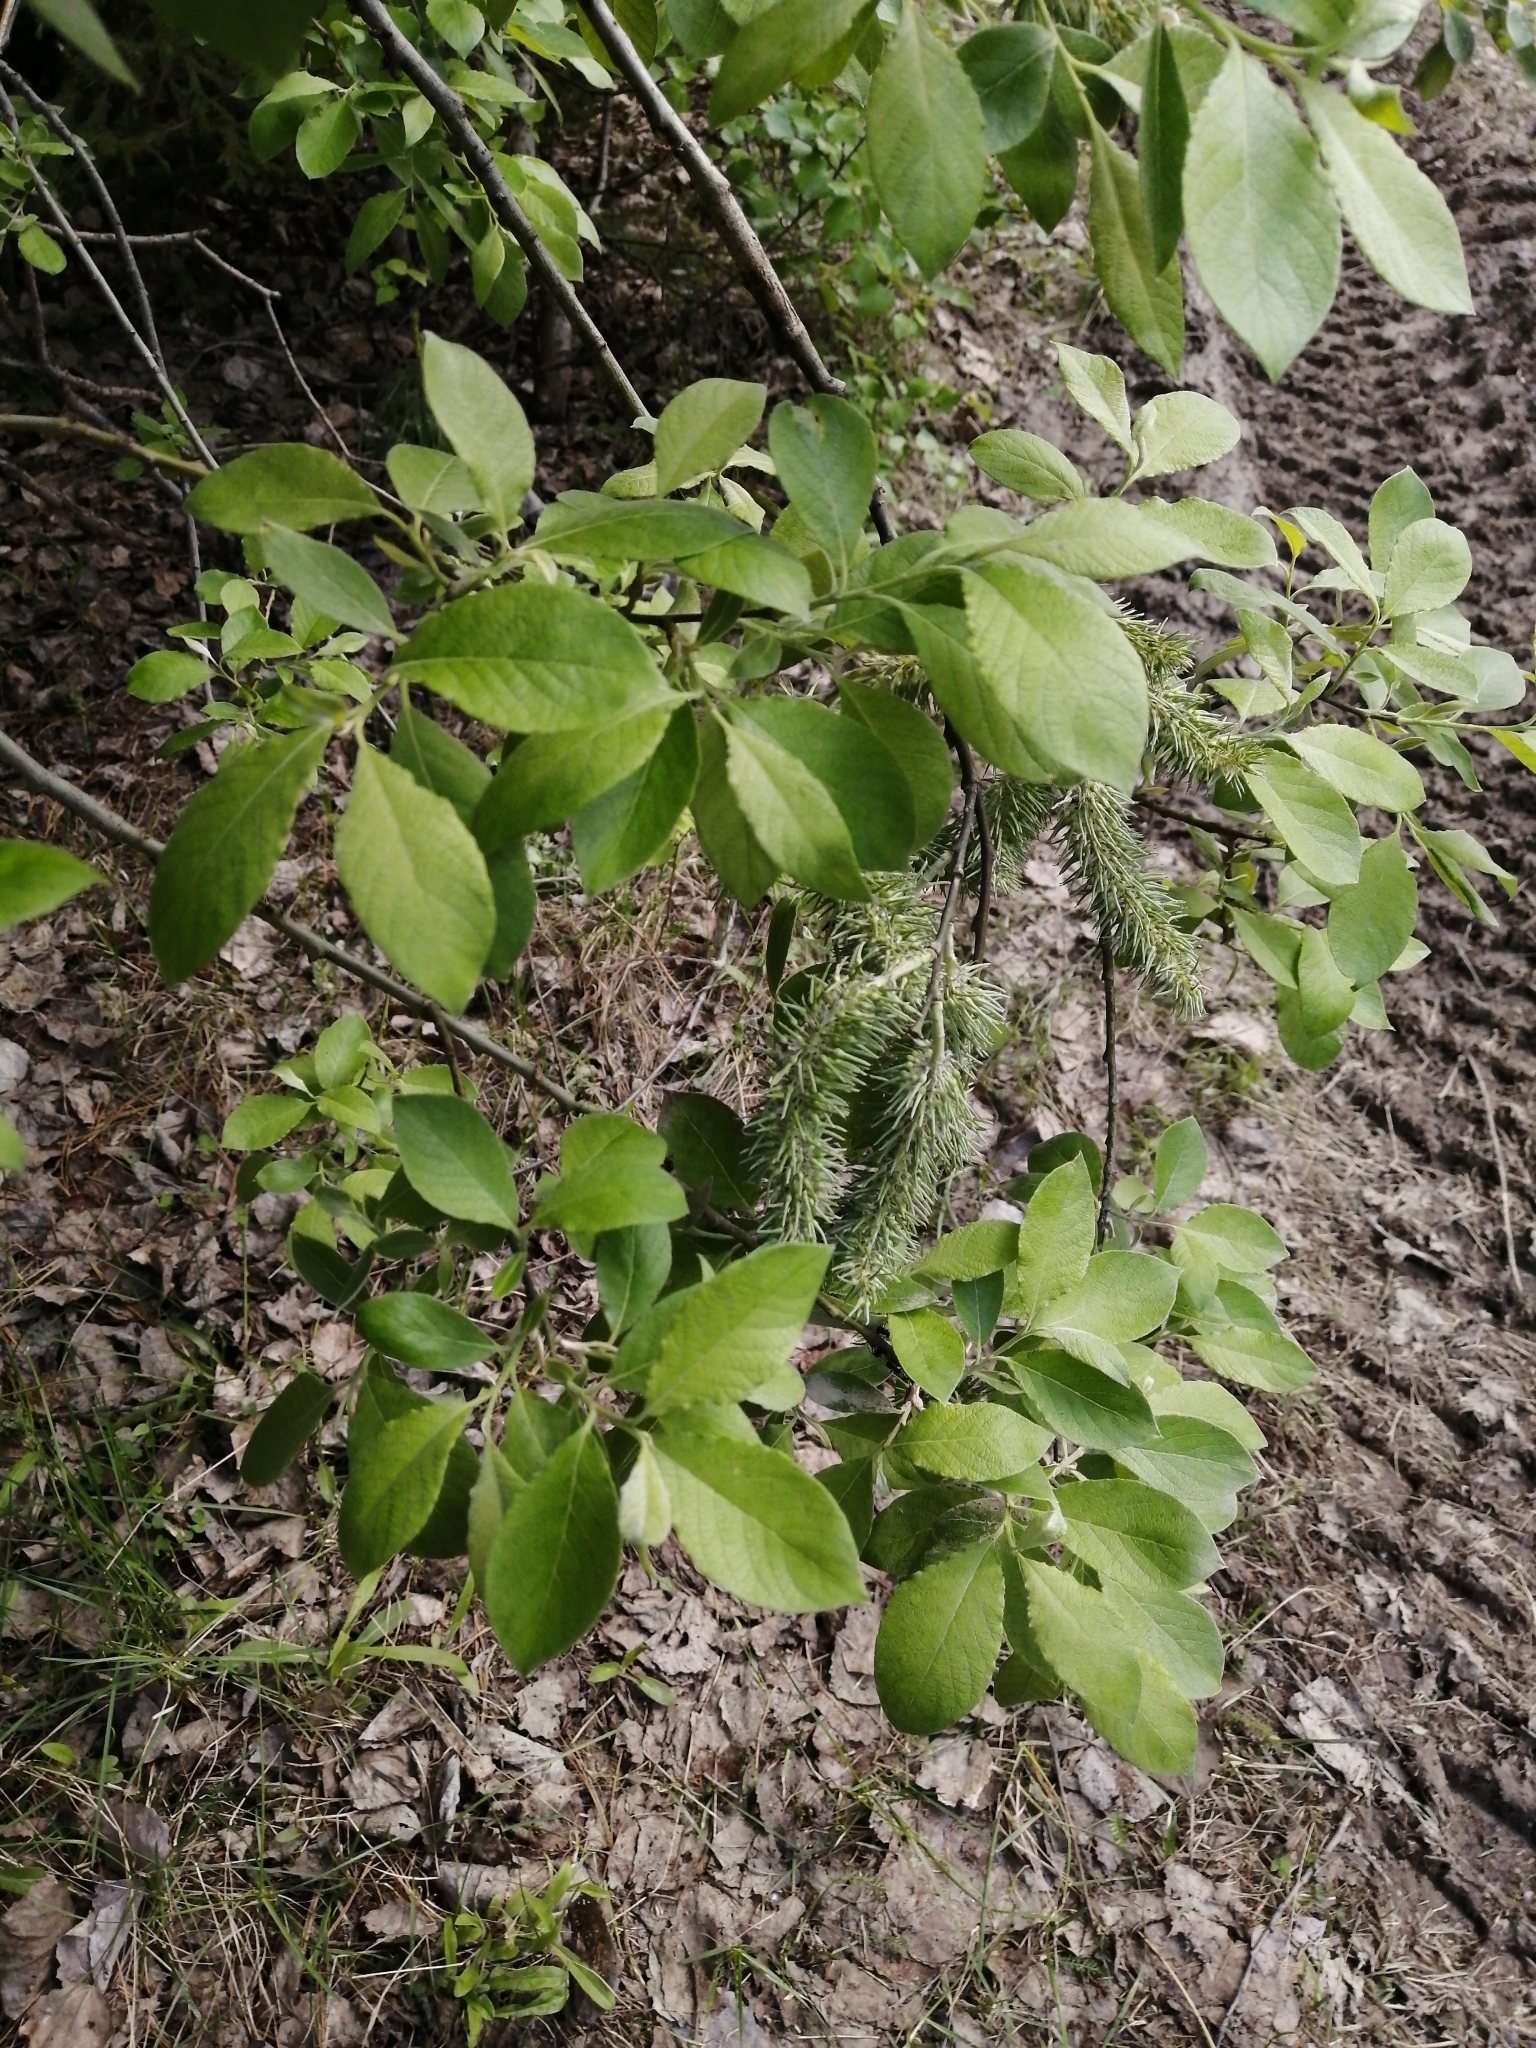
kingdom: Plantae
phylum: Tracheophyta
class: Magnoliopsida
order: Malpighiales
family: Salicaceae
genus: Salix
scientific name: Salix caprea
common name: Goat willow
